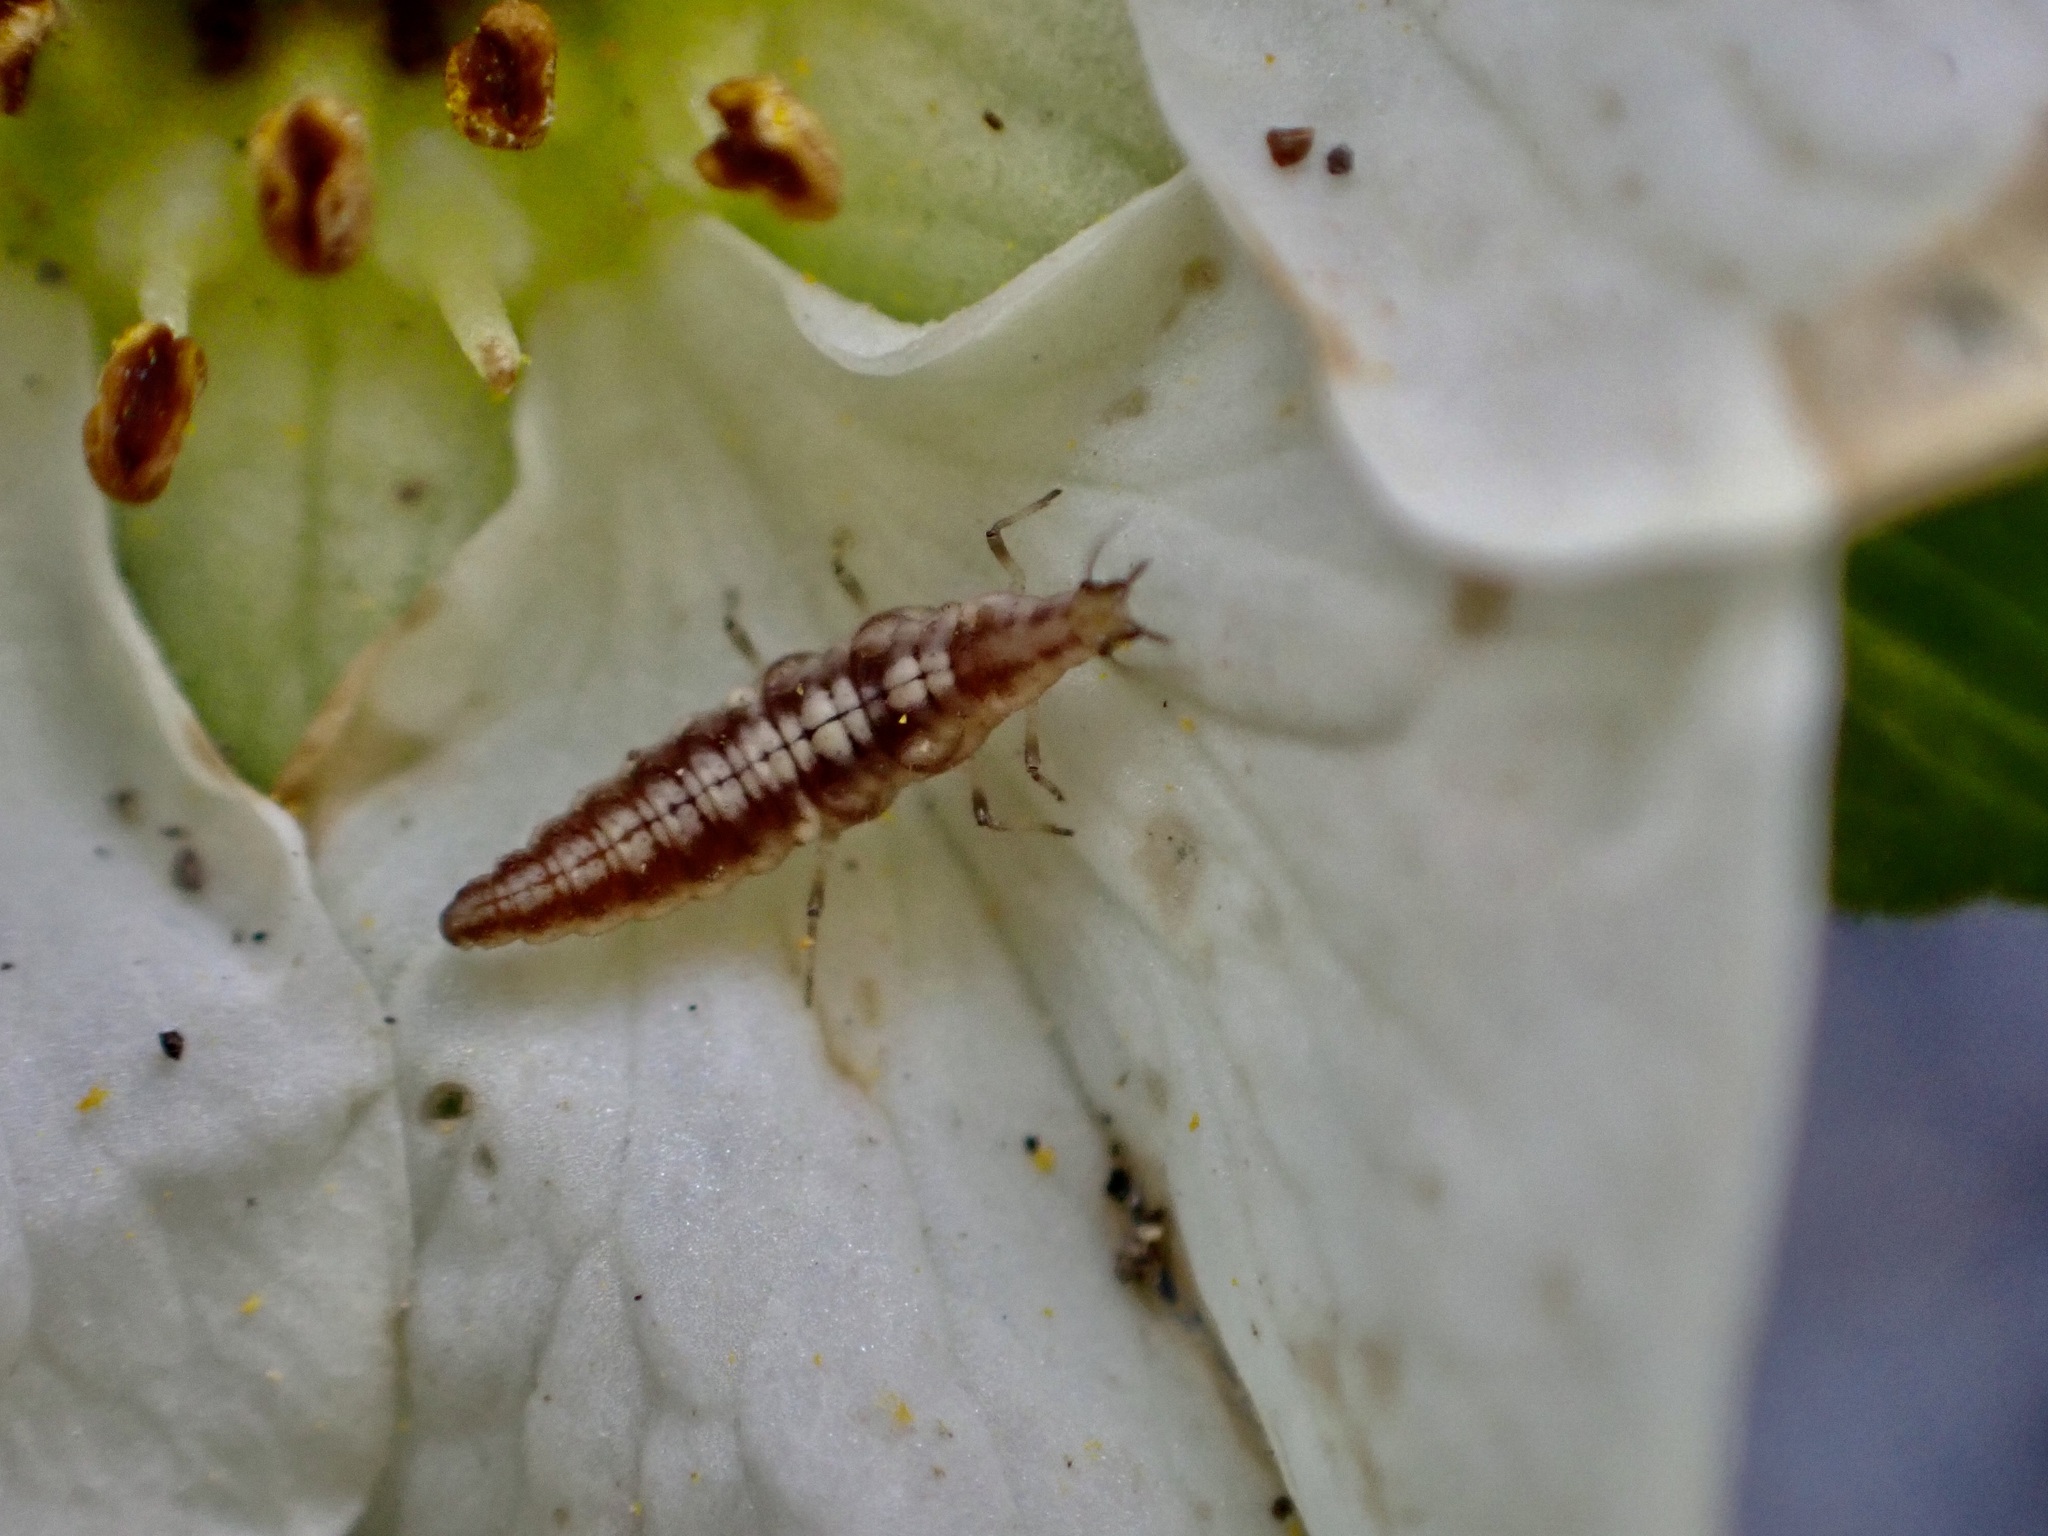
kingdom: Animalia
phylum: Arthropoda
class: Insecta
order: Neuroptera
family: Hemerobiidae
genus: Micromus
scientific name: Micromus tasmaniae
